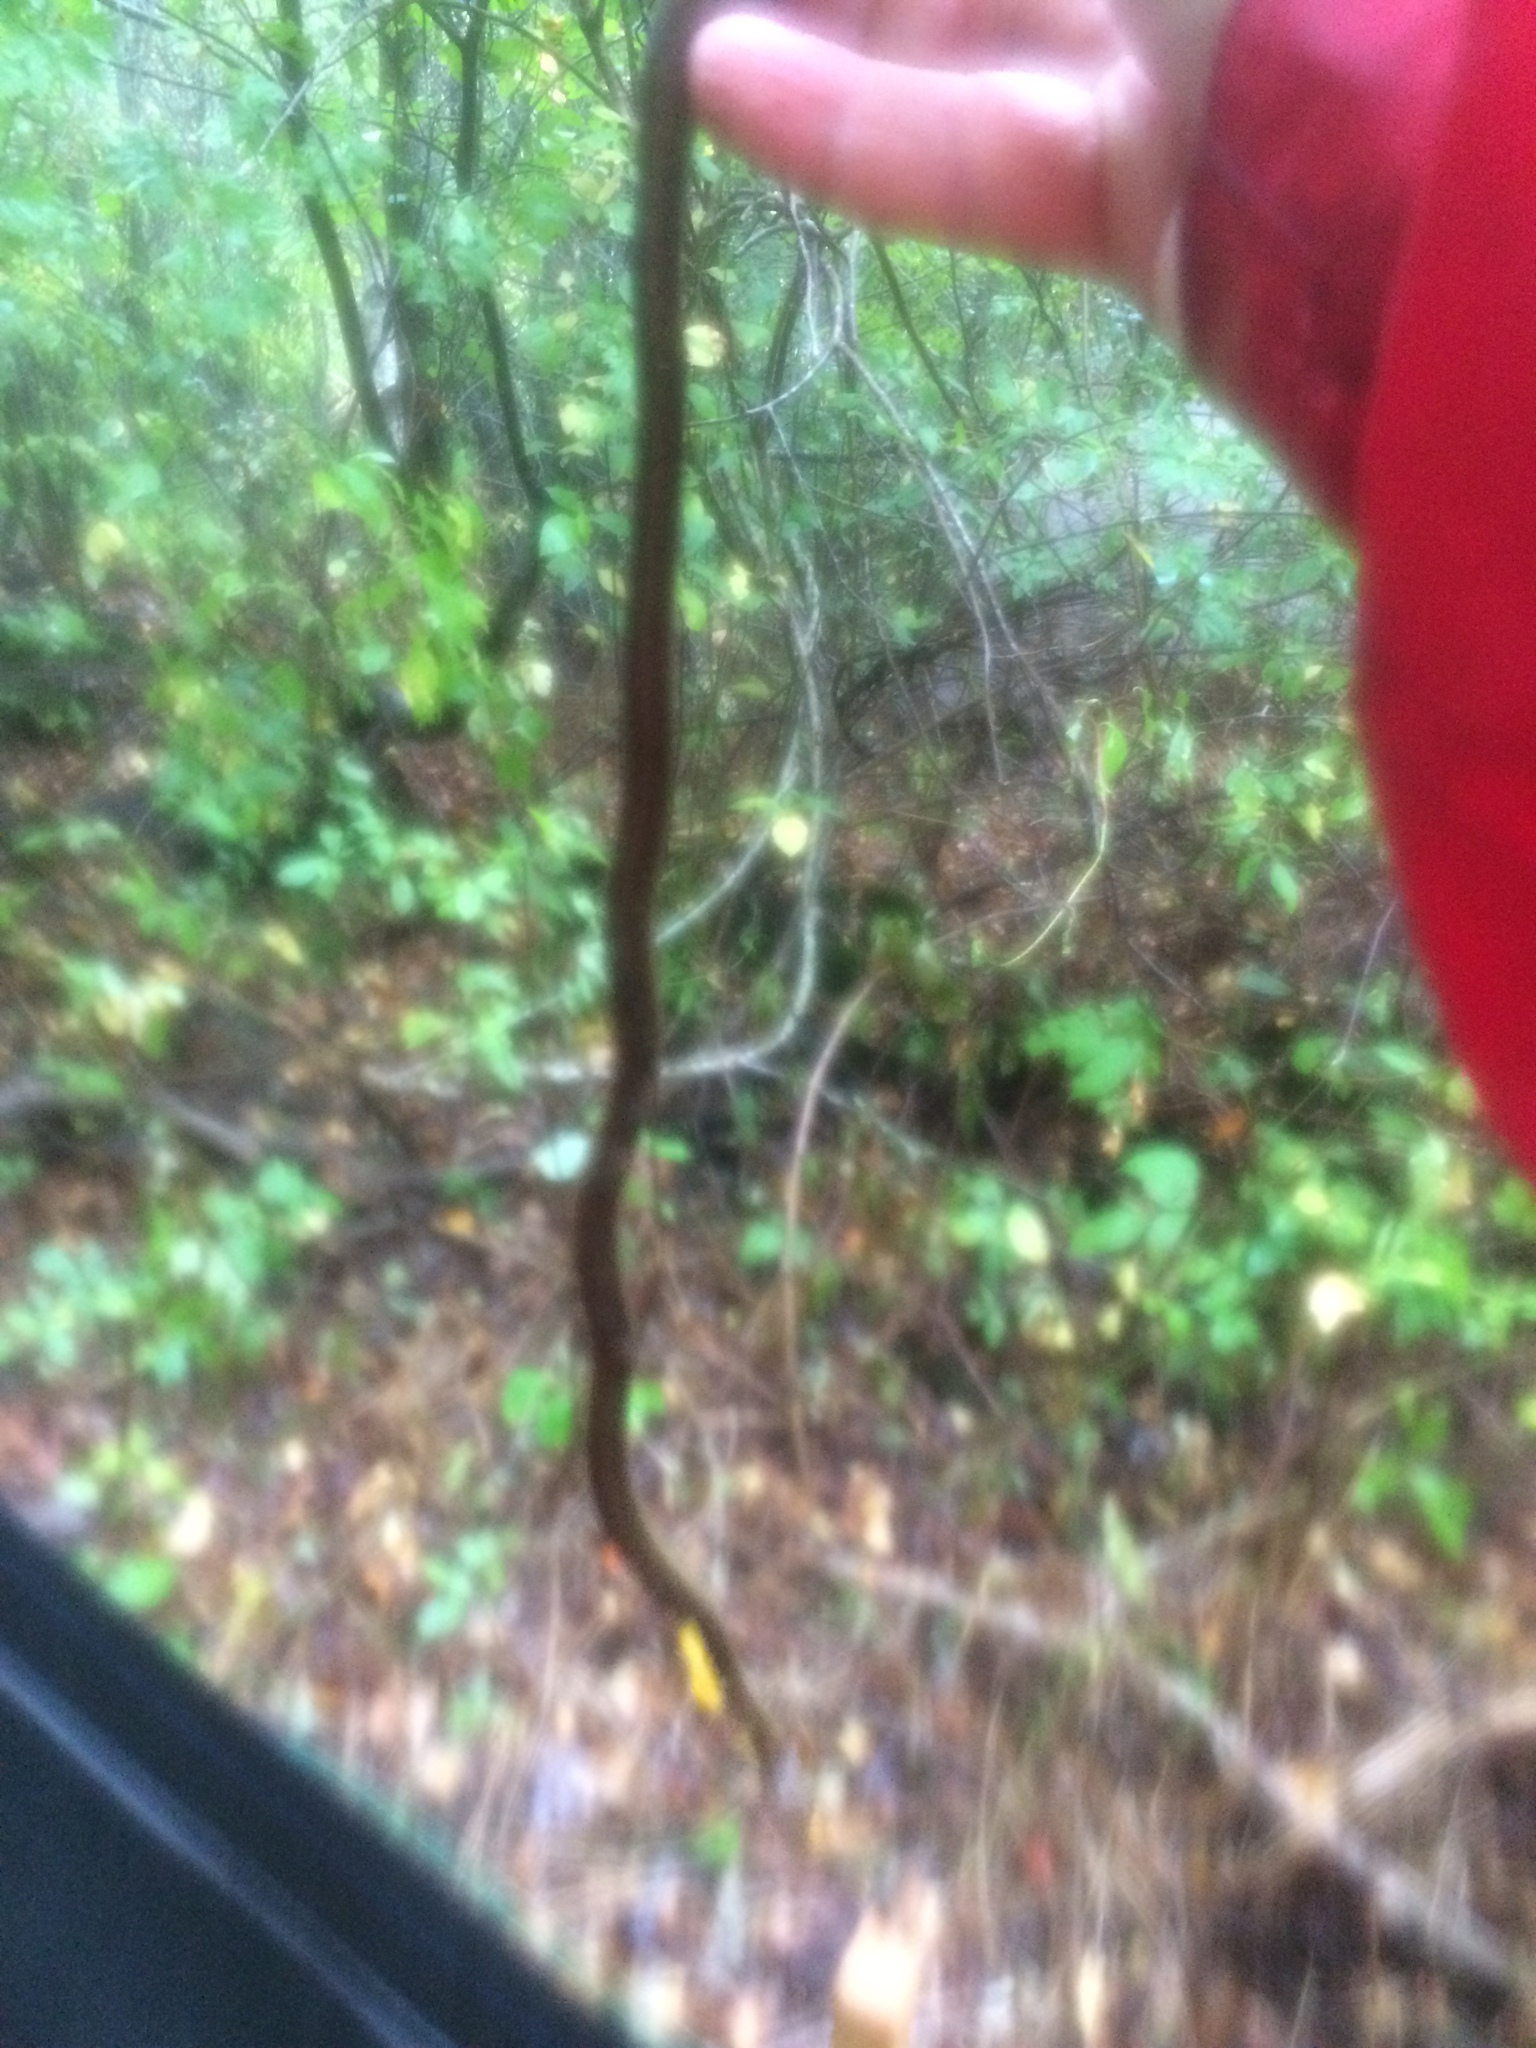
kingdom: Animalia
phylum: Chordata
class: Squamata
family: Colubridae
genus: Thamnophis
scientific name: Thamnophis sirtalis
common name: Common garter snake
